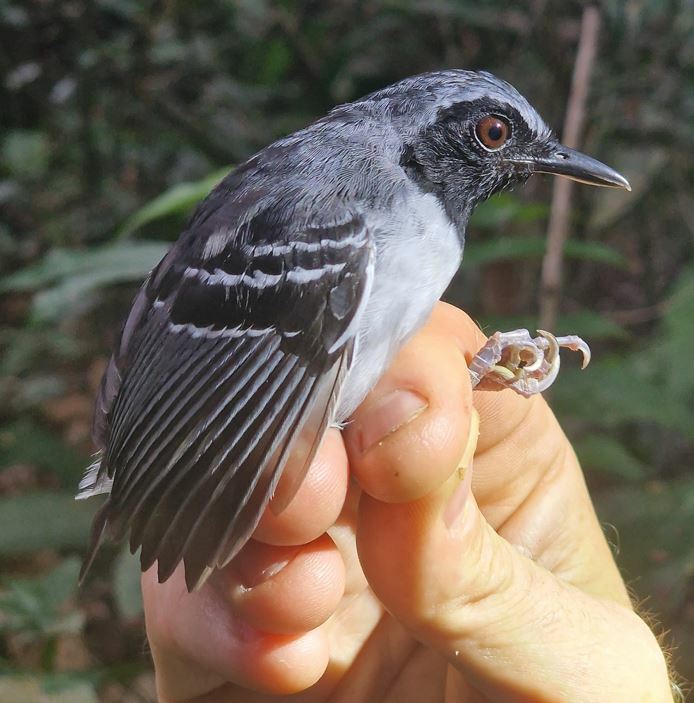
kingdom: Animalia
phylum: Chordata
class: Aves
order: Passeriformes
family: Thamnophilidae
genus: Myrmoborus
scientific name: Myrmoborus myotherinus
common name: Black-faced antbird
